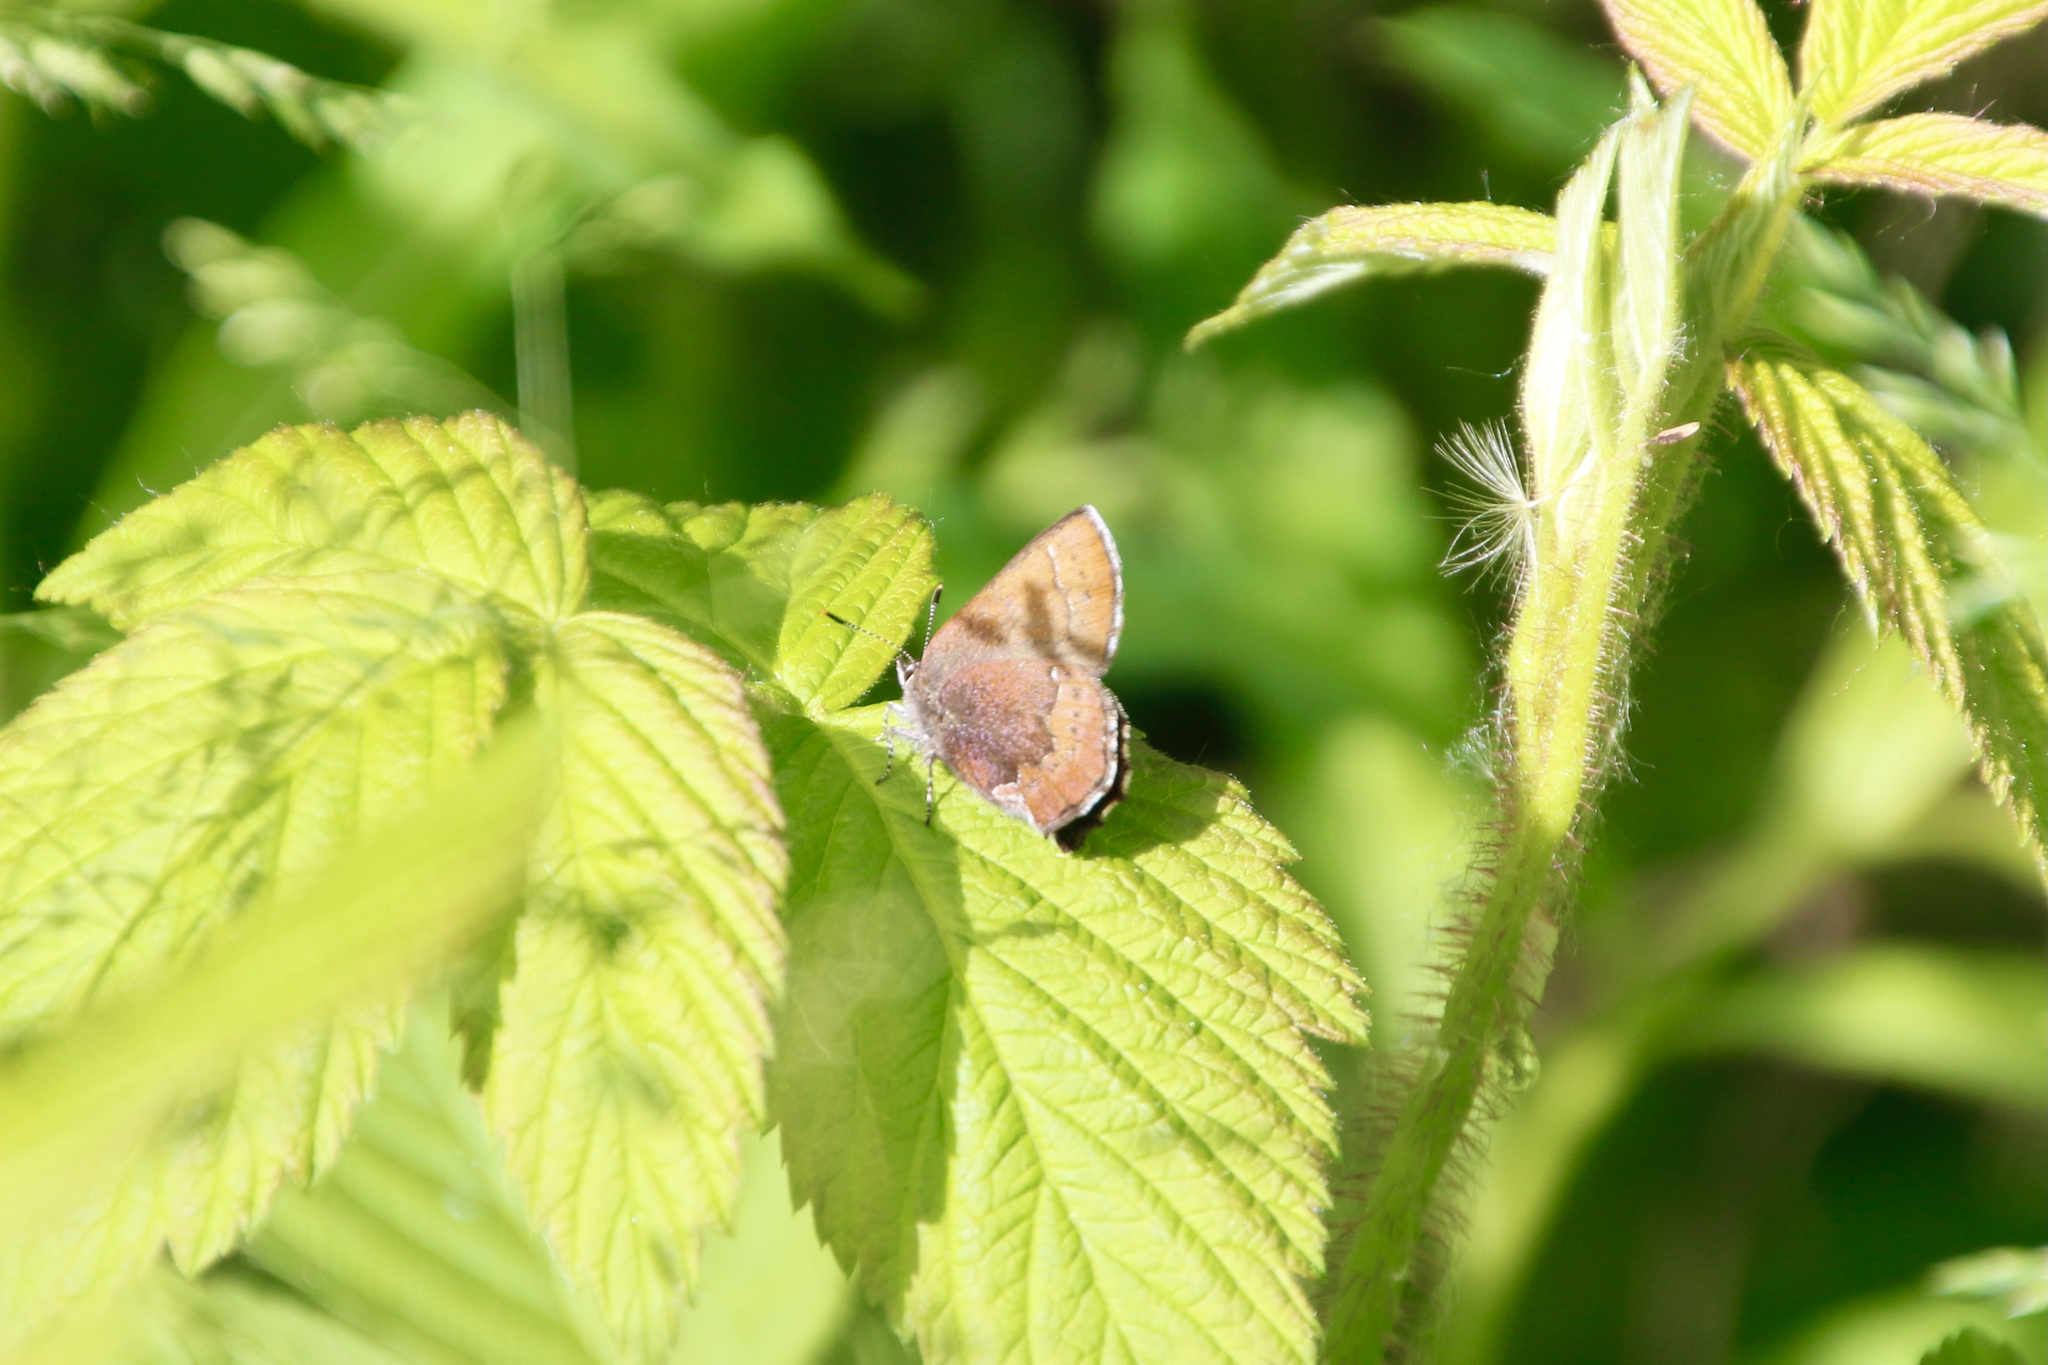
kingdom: Animalia
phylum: Arthropoda
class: Insecta
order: Lepidoptera
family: Lycaenidae
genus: Incisalia
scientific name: Incisalia irioides
